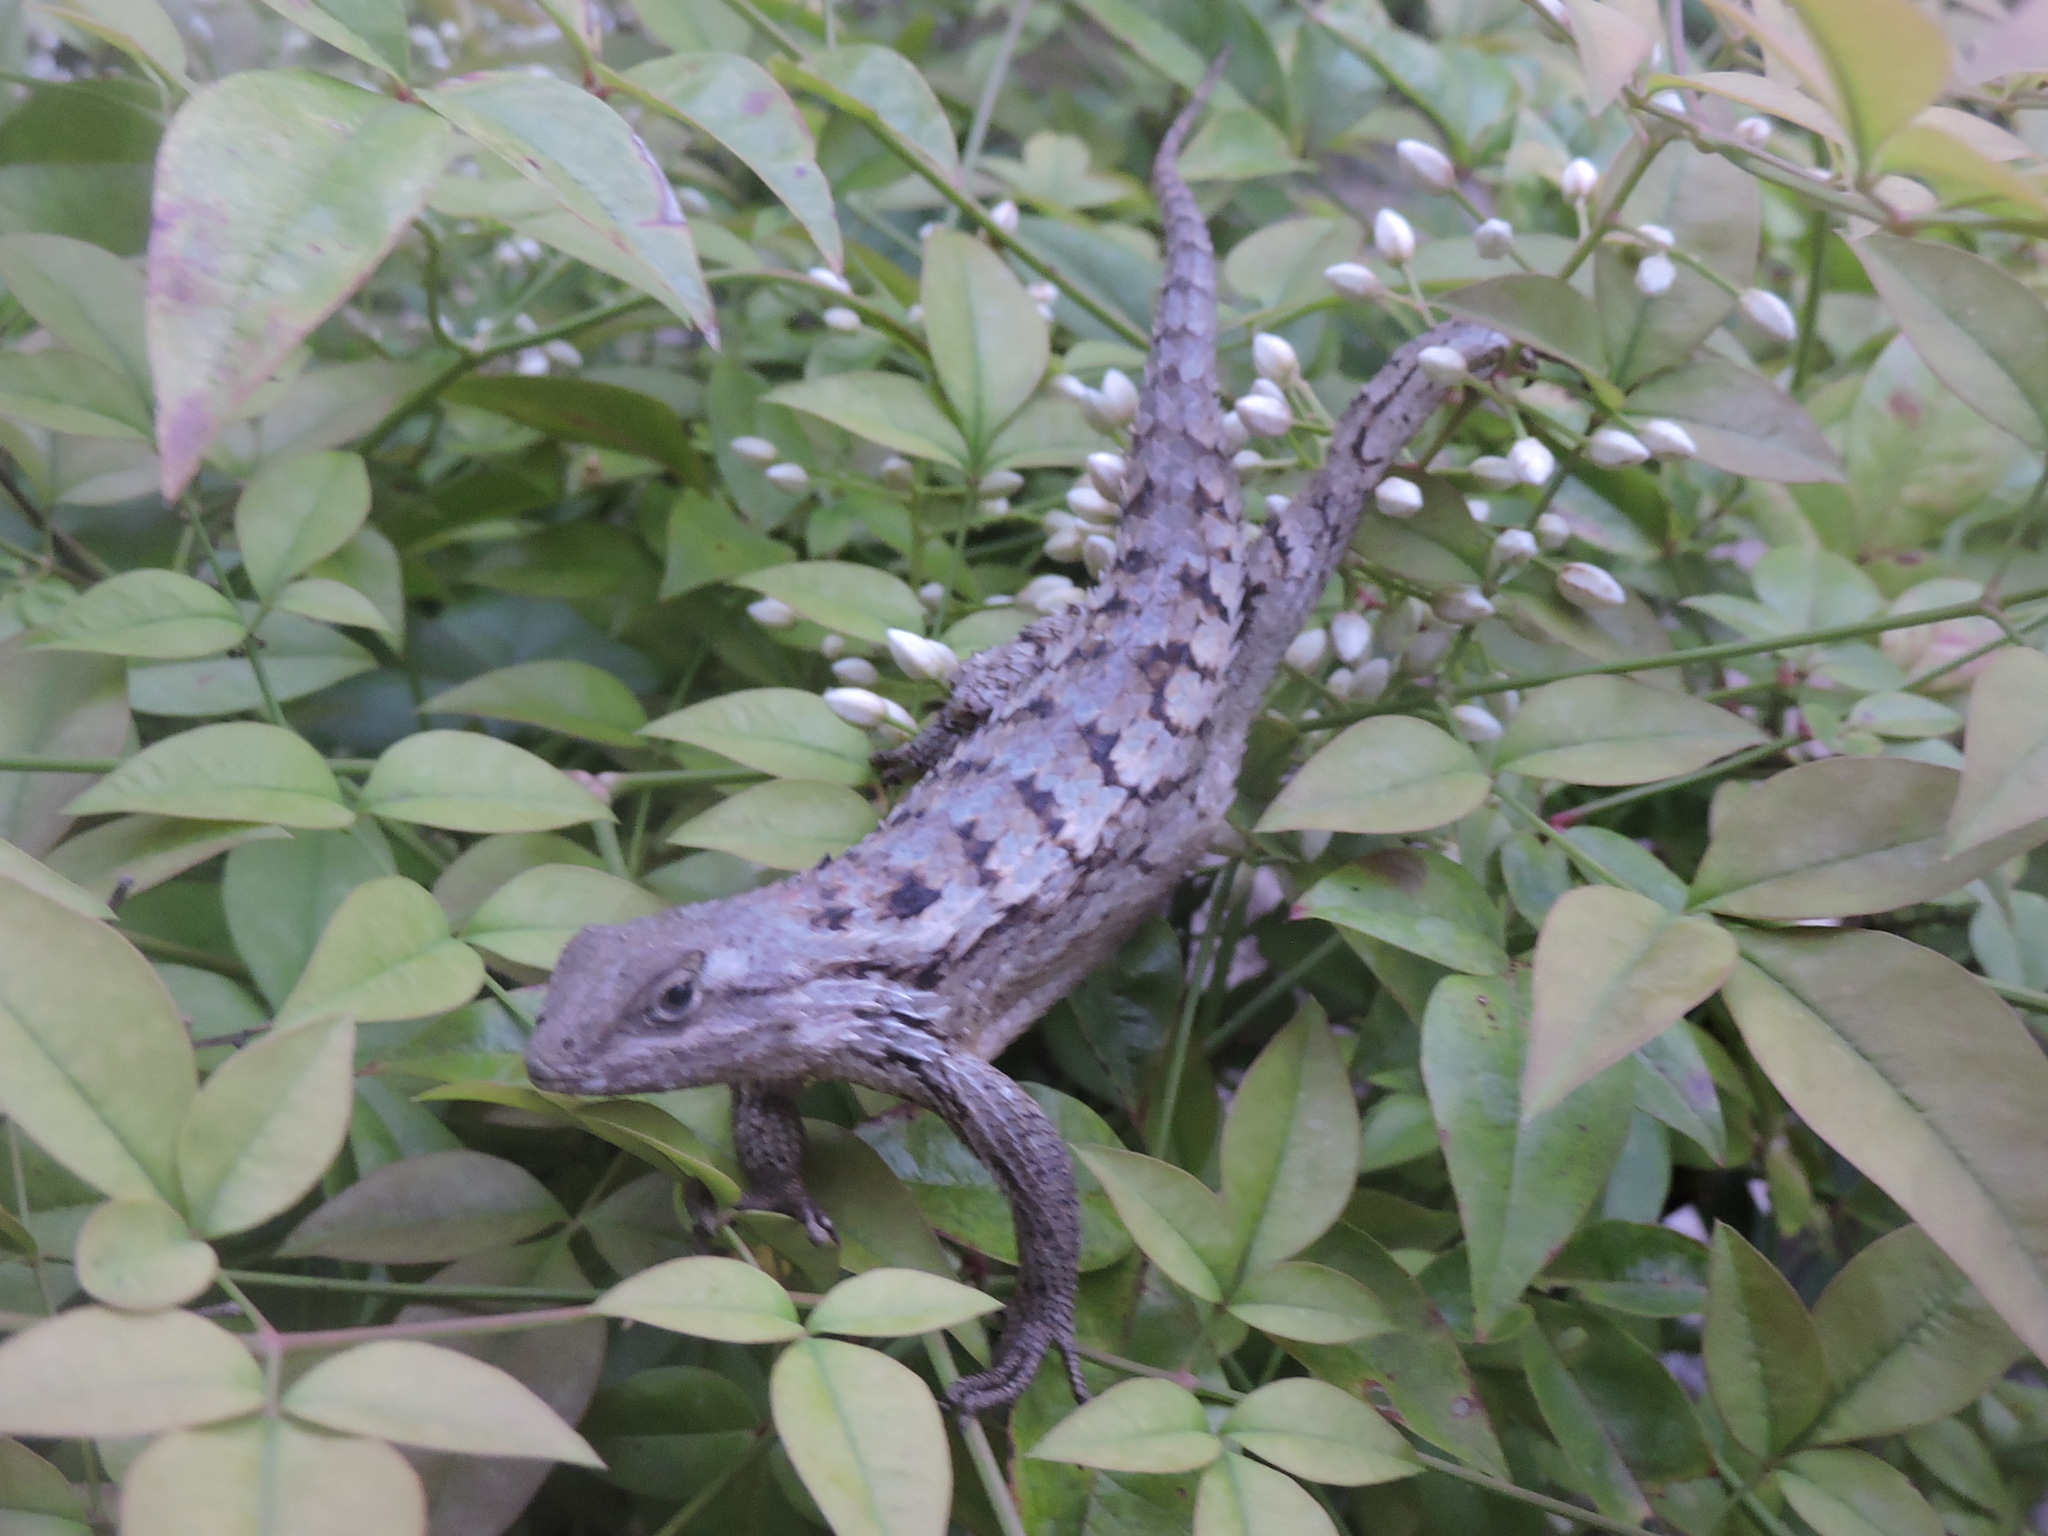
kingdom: Animalia
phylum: Chordata
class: Squamata
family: Phrynosomatidae
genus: Sceloporus
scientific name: Sceloporus olivaceus
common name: Texas spiny lizard
